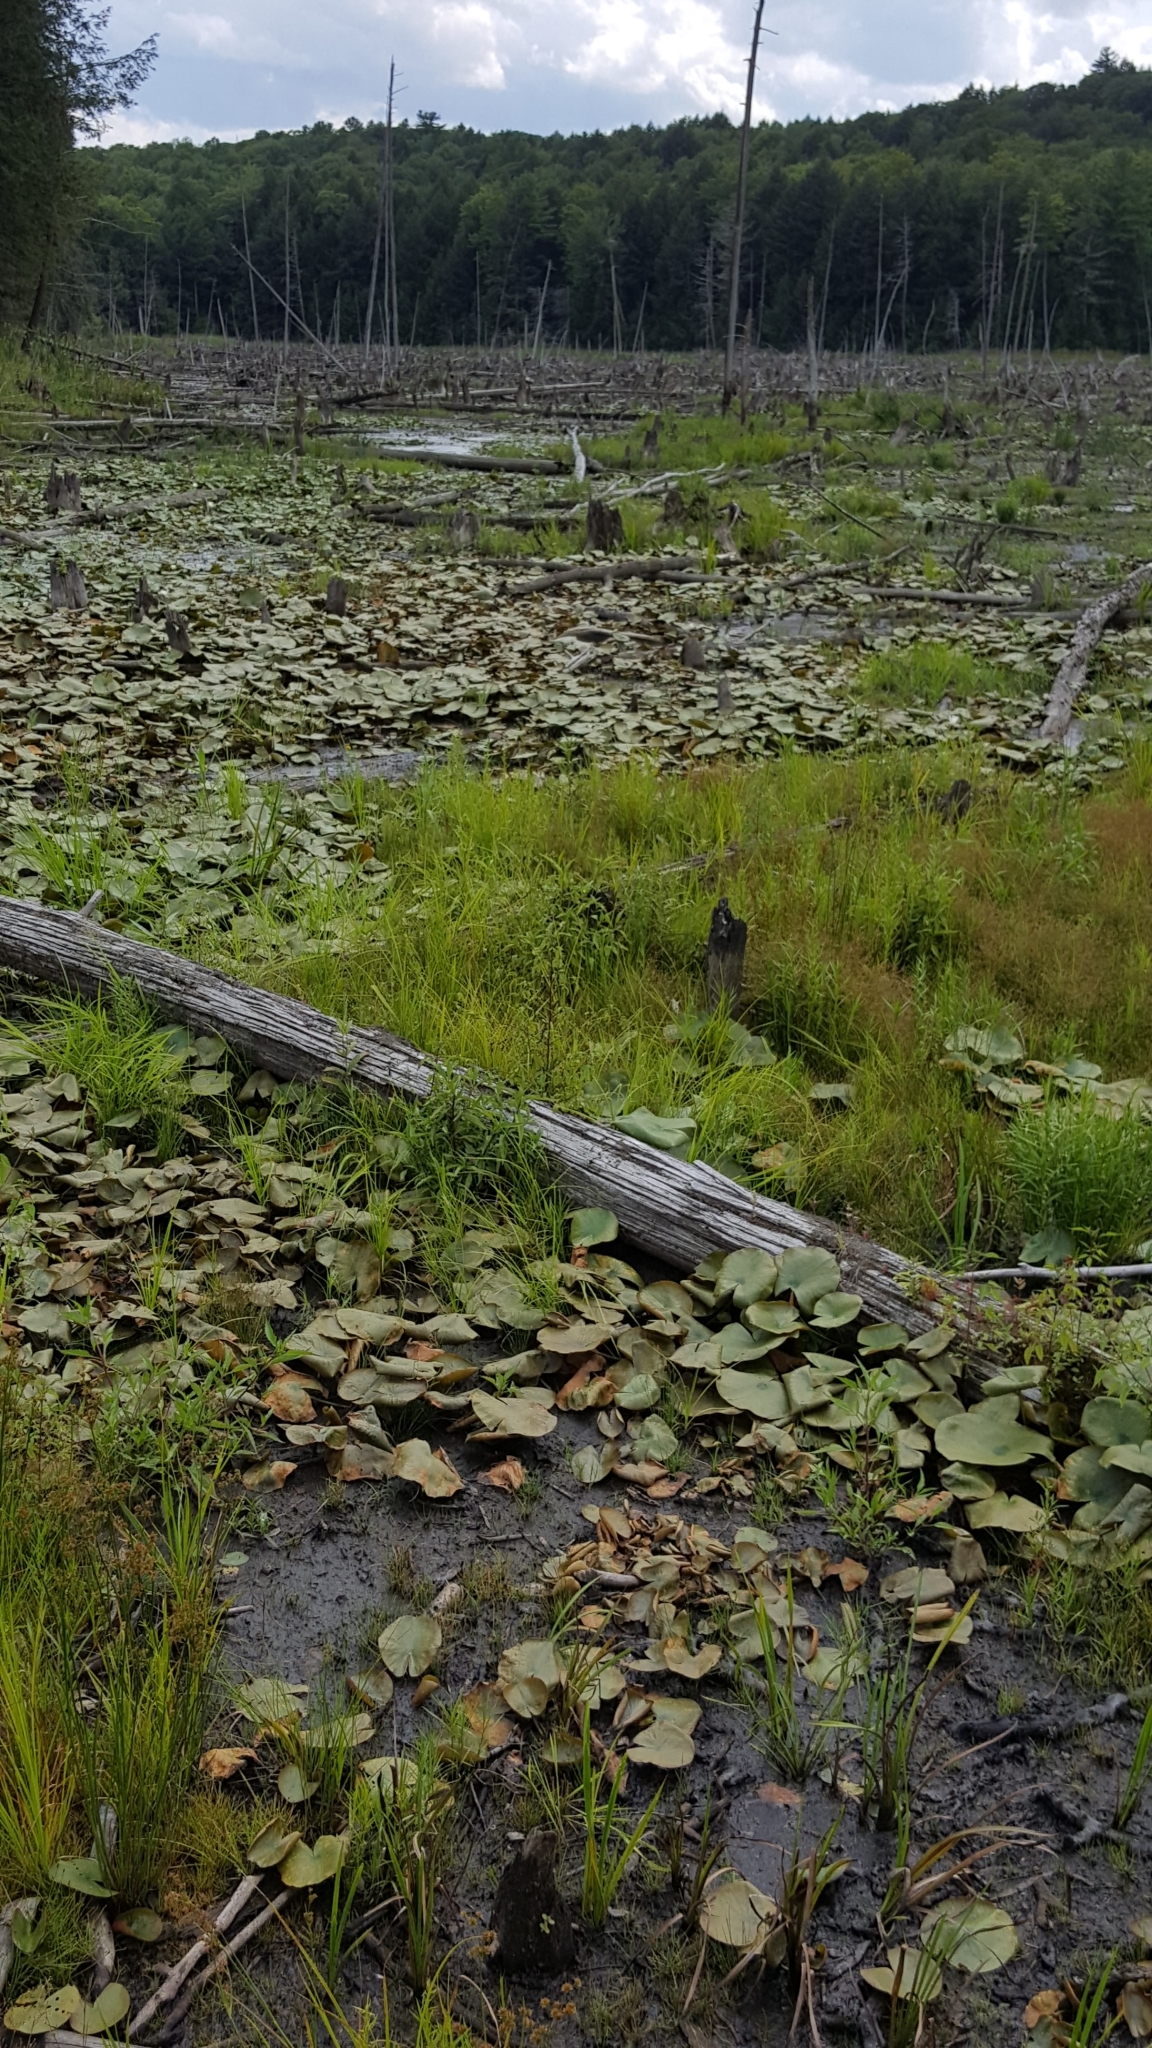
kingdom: Plantae
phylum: Tracheophyta
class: Magnoliopsida
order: Nymphaeales
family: Nymphaeaceae
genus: Nymphaea
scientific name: Nymphaea odorata
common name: Fragrant water-lily
